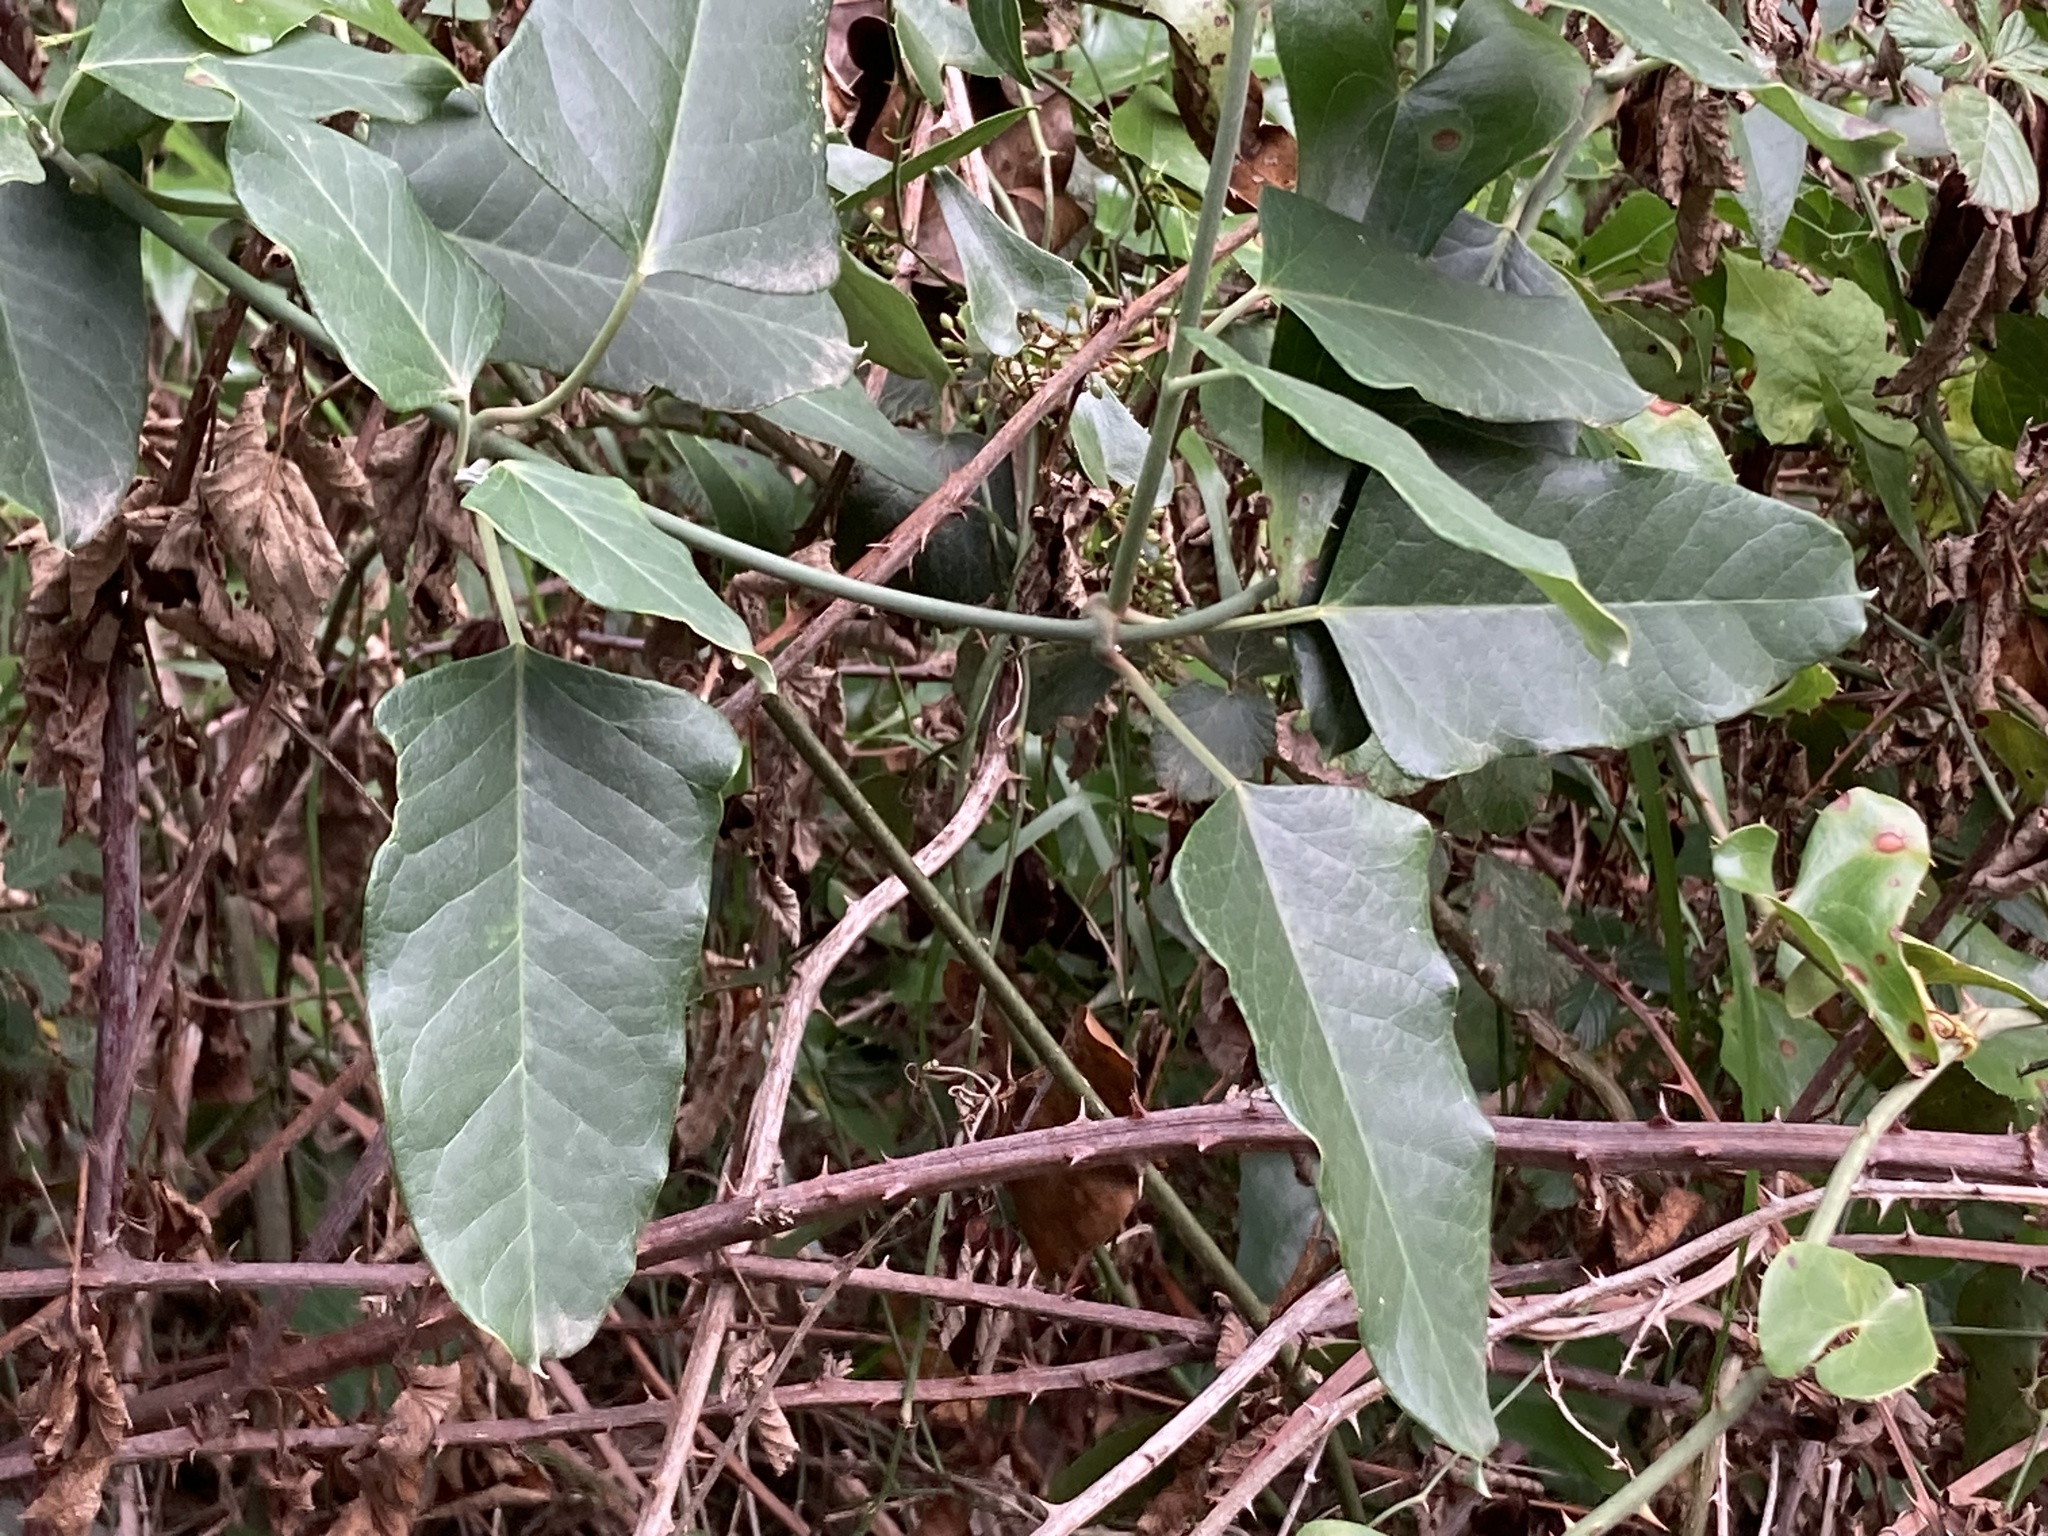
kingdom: Plantae
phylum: Tracheophyta
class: Magnoliopsida
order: Gentianales
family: Apocynaceae
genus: Araujia
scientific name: Araujia sericifera
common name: White bladderflower
